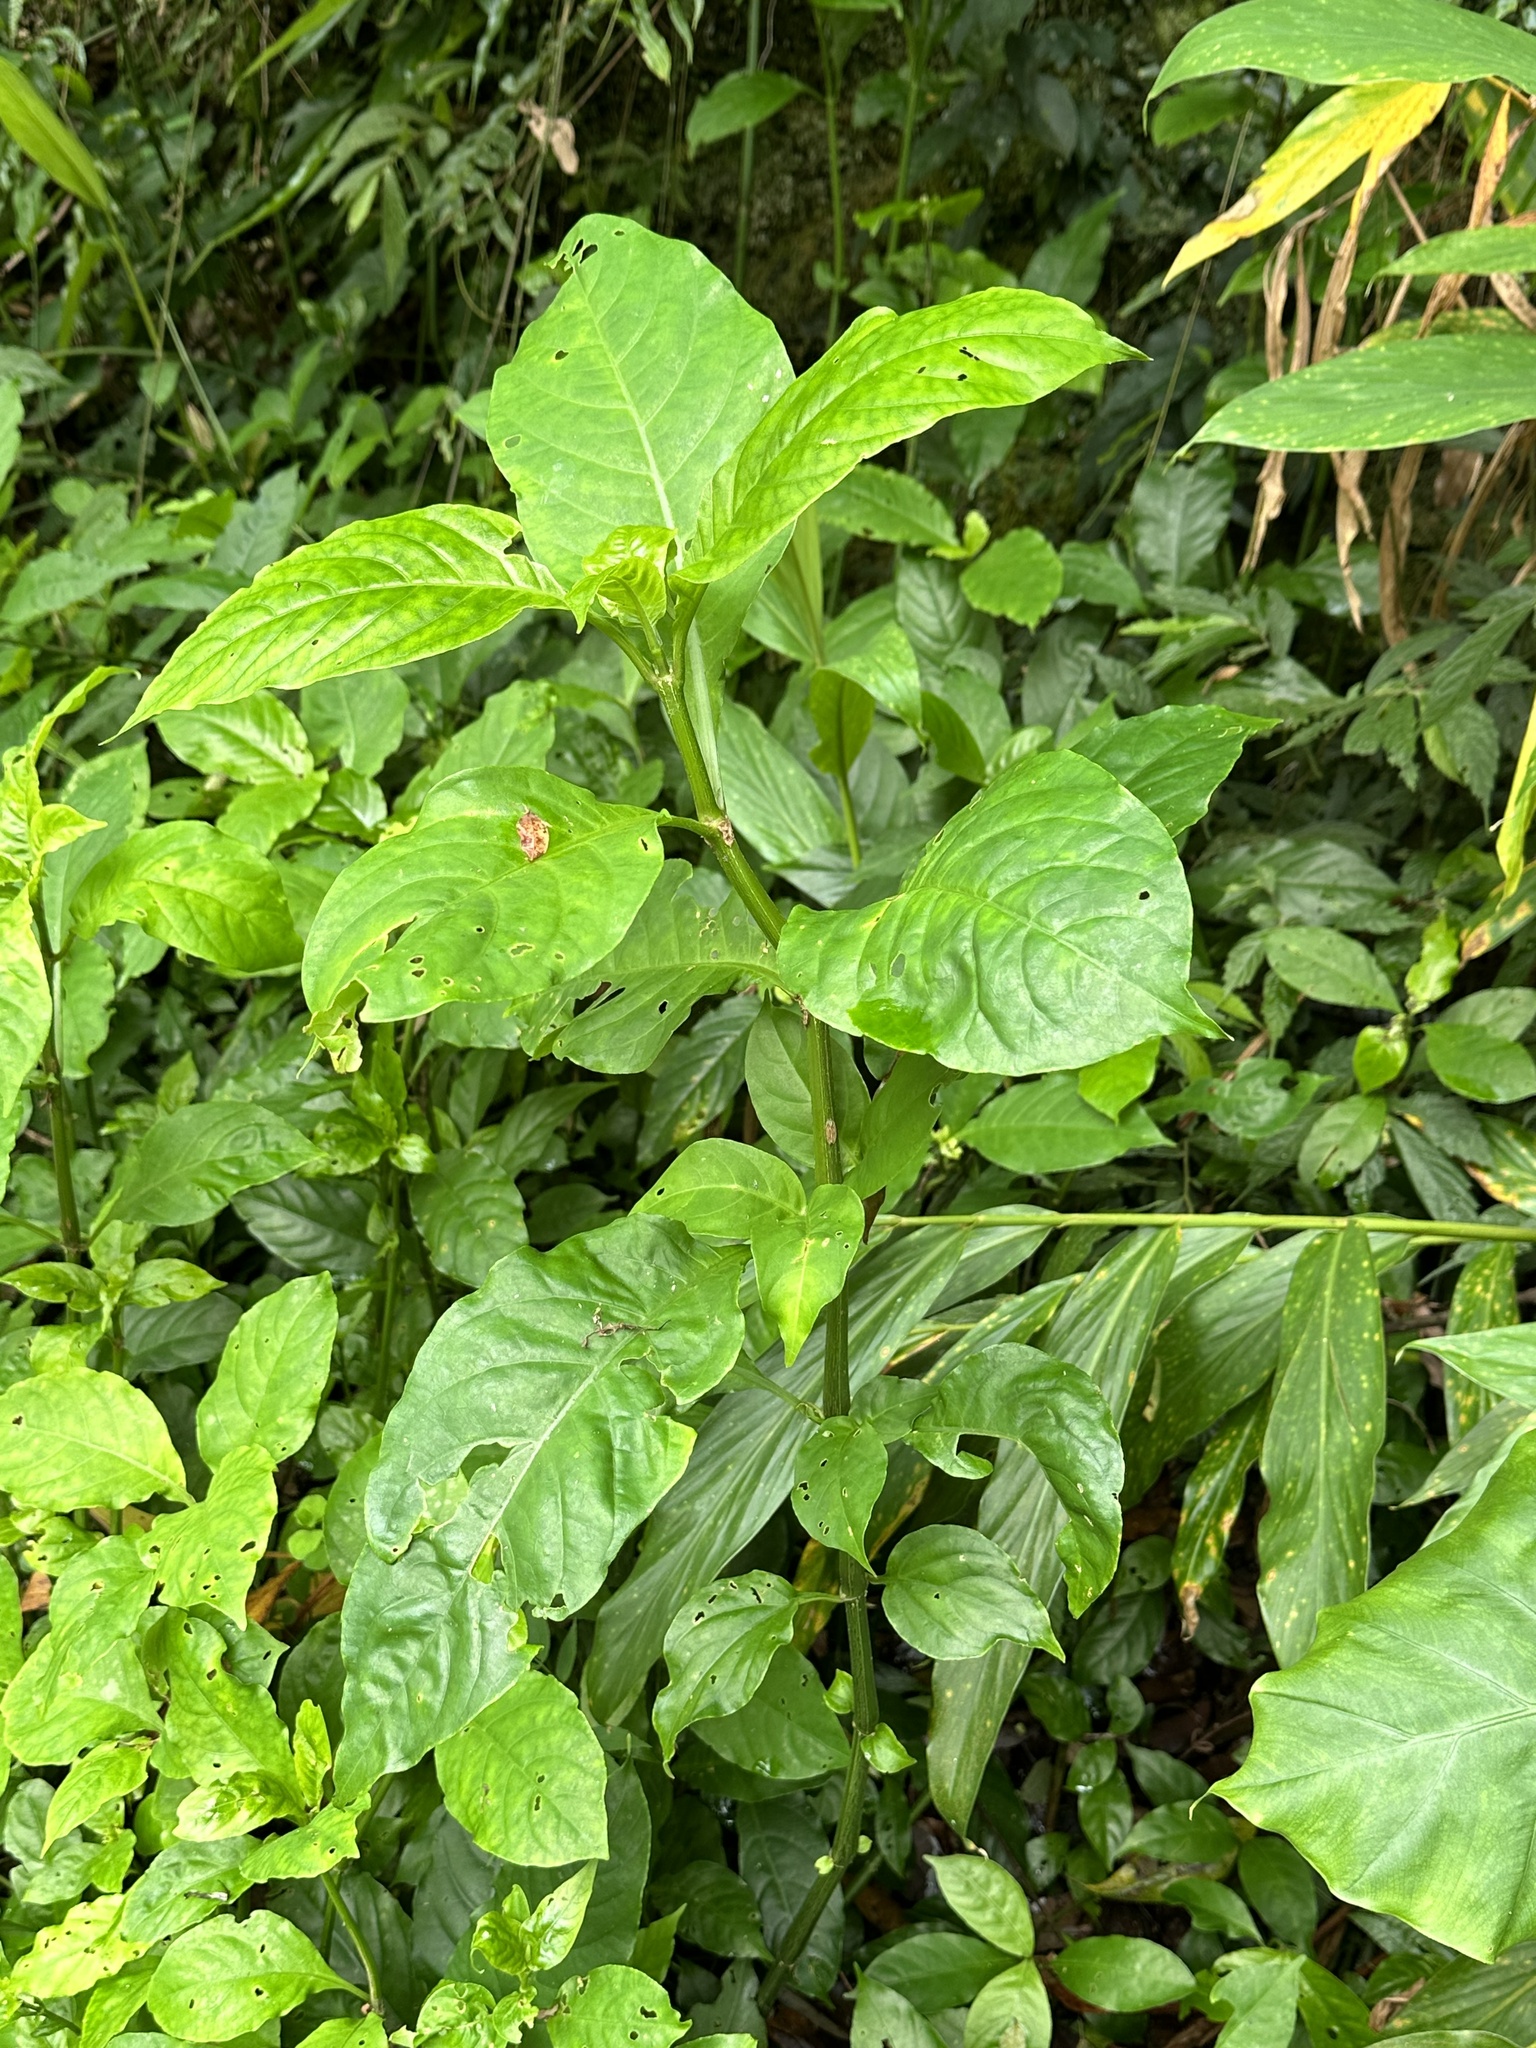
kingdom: Plantae
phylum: Tracheophyta
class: Magnoliopsida
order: Lamiales
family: Acanthaceae
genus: Odontonema
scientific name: Odontonema tubaeforme
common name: Firespike
